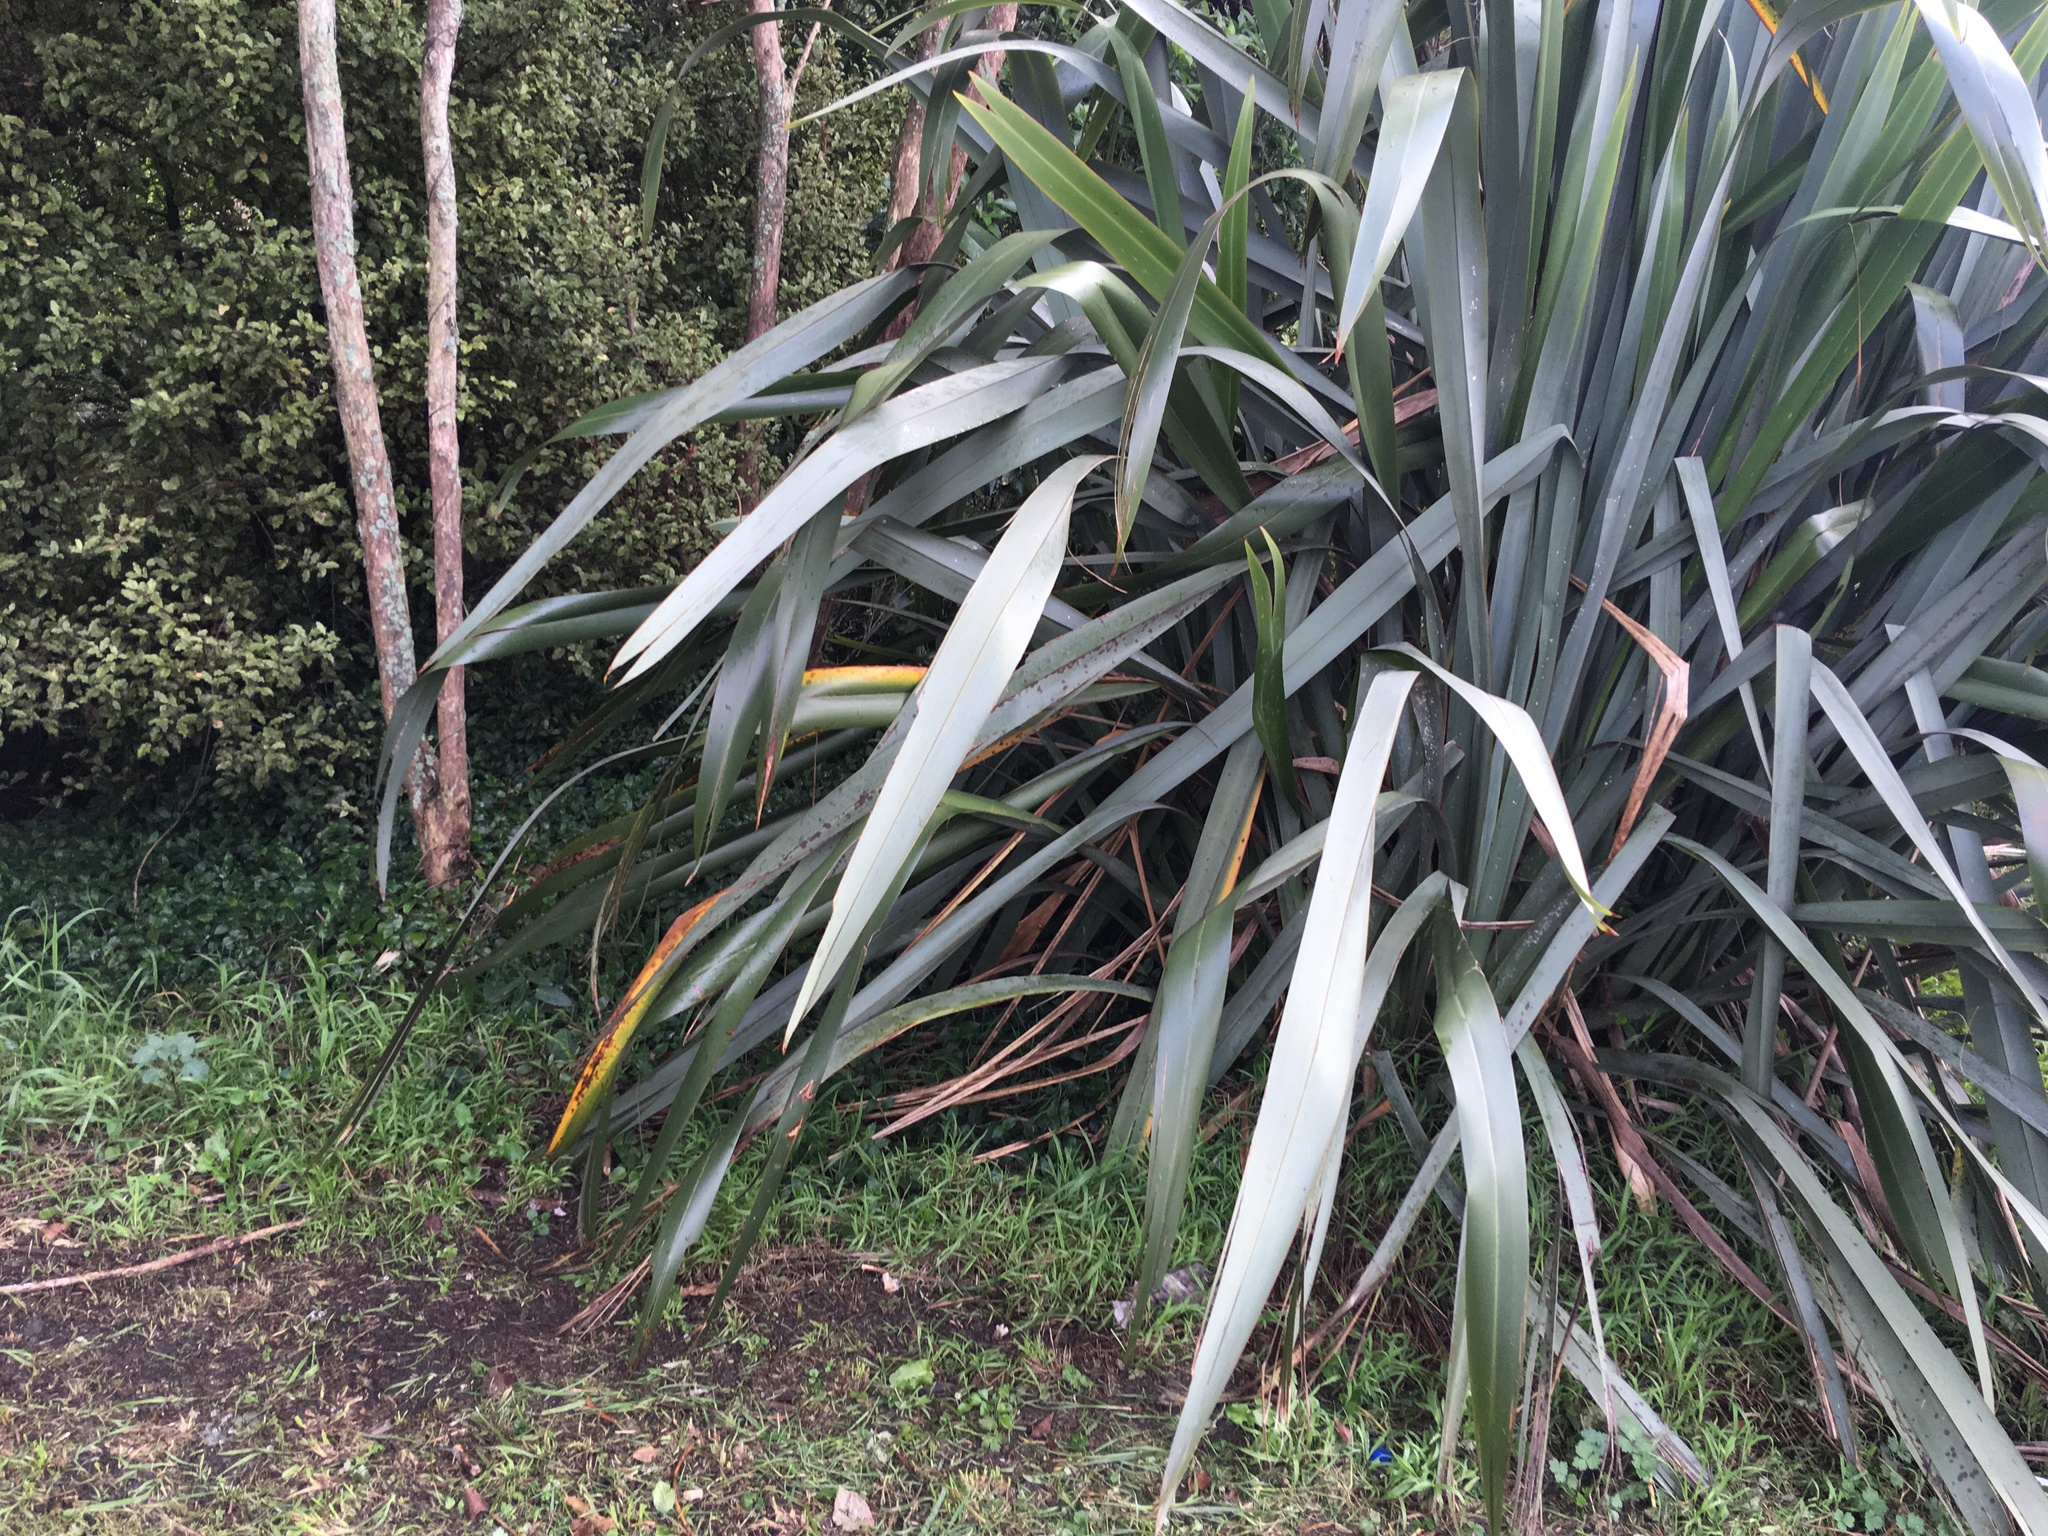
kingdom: Plantae
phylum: Tracheophyta
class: Liliopsida
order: Asparagales
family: Asphodelaceae
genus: Phormium
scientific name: Phormium tenax
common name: New zealand flax
